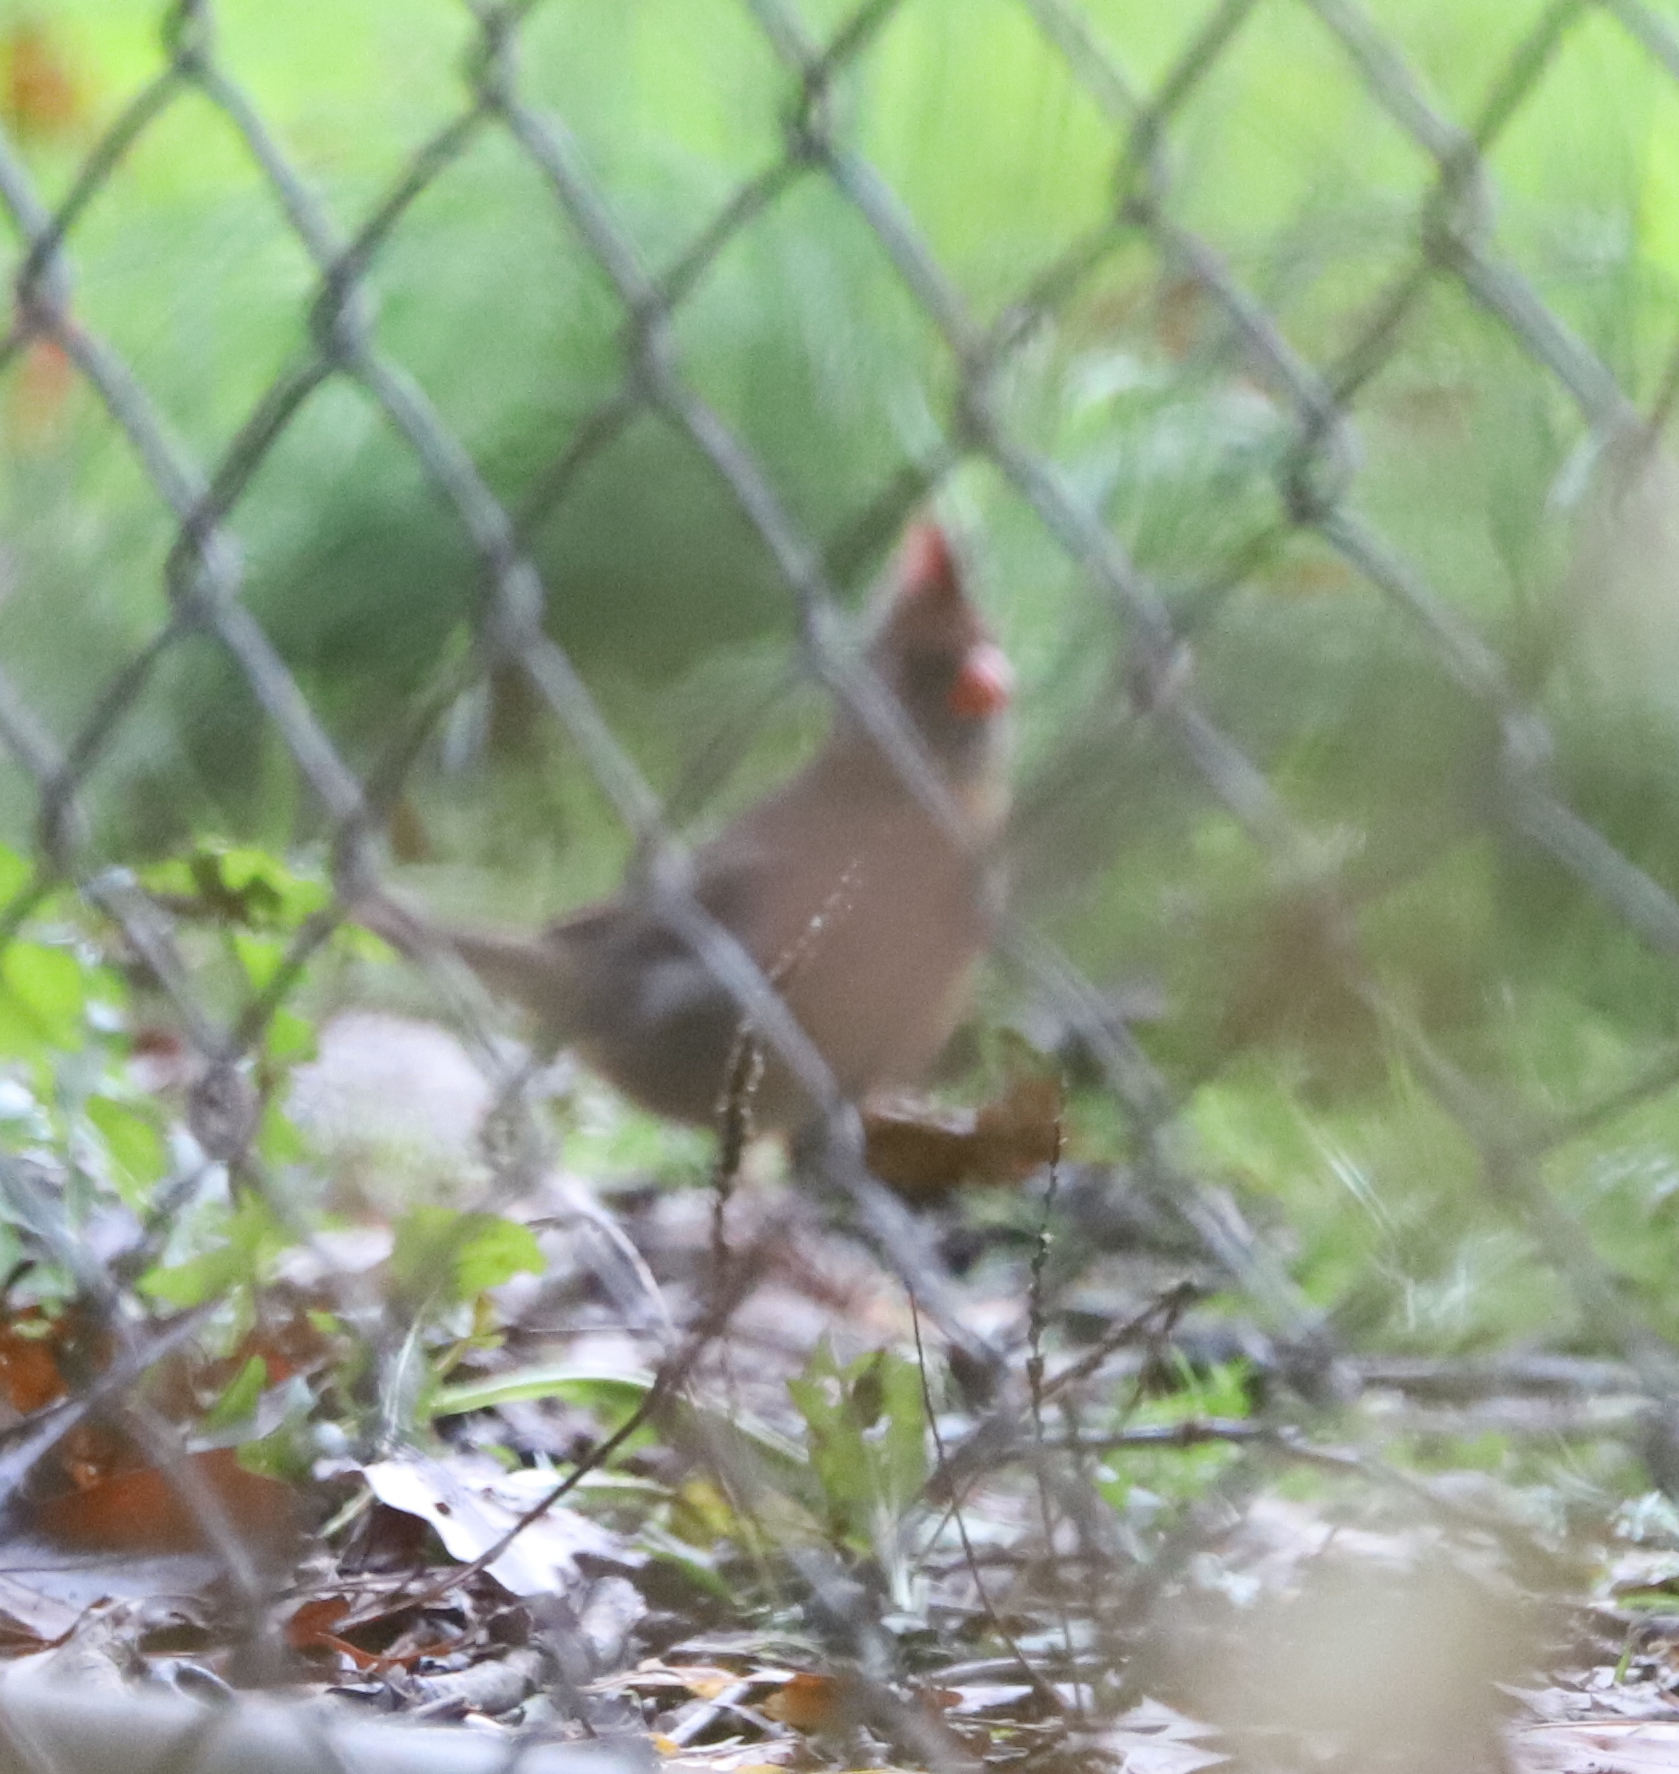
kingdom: Animalia
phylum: Chordata
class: Aves
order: Passeriformes
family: Cardinalidae
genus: Cardinalis
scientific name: Cardinalis cardinalis
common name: Northern cardinal
